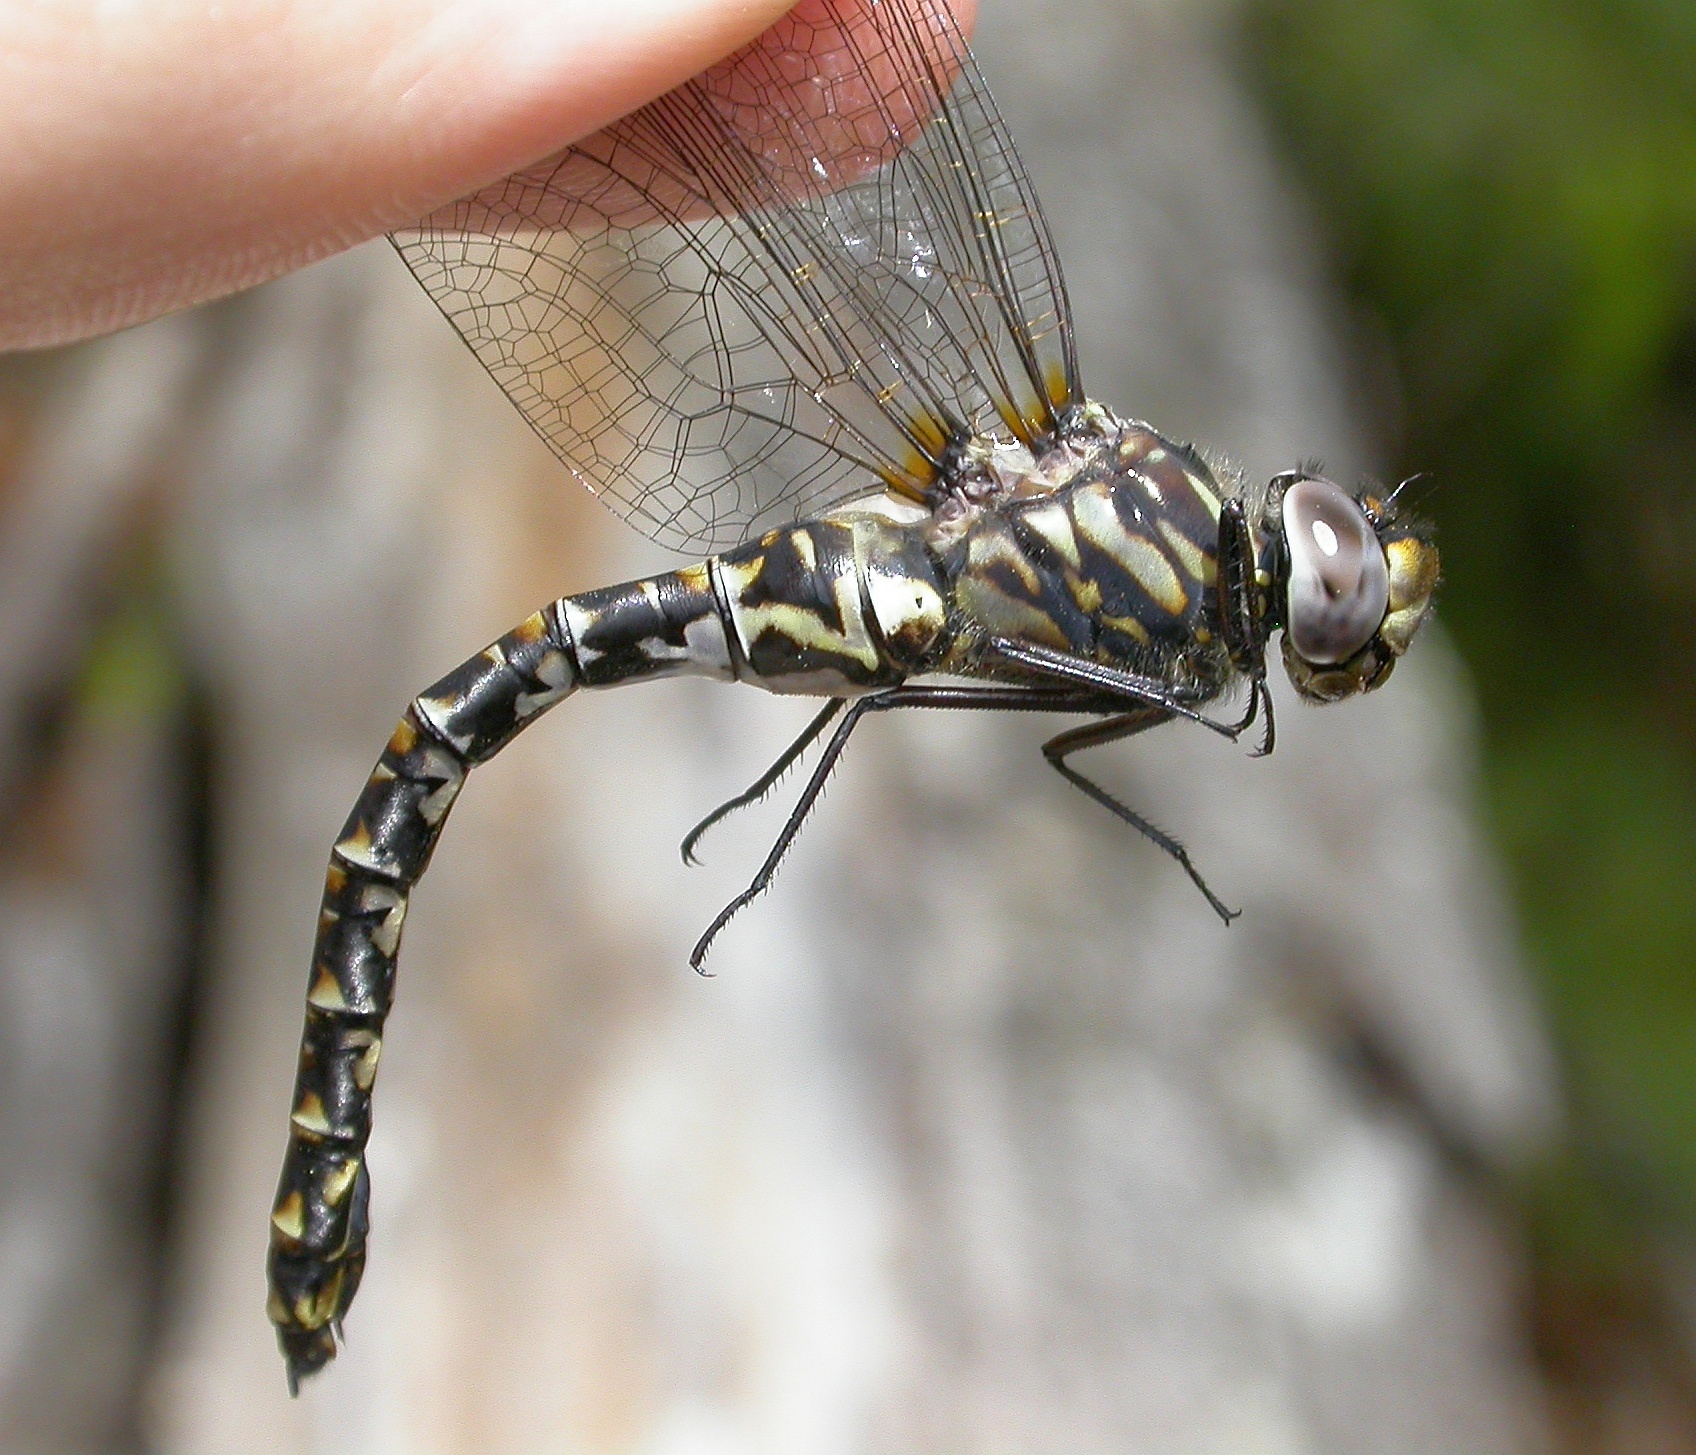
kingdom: Animalia
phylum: Arthropoda
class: Insecta
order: Odonata
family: Aeshnidae
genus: Gomphaeschna
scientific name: Gomphaeschna furcillata
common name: Harlequin darner
